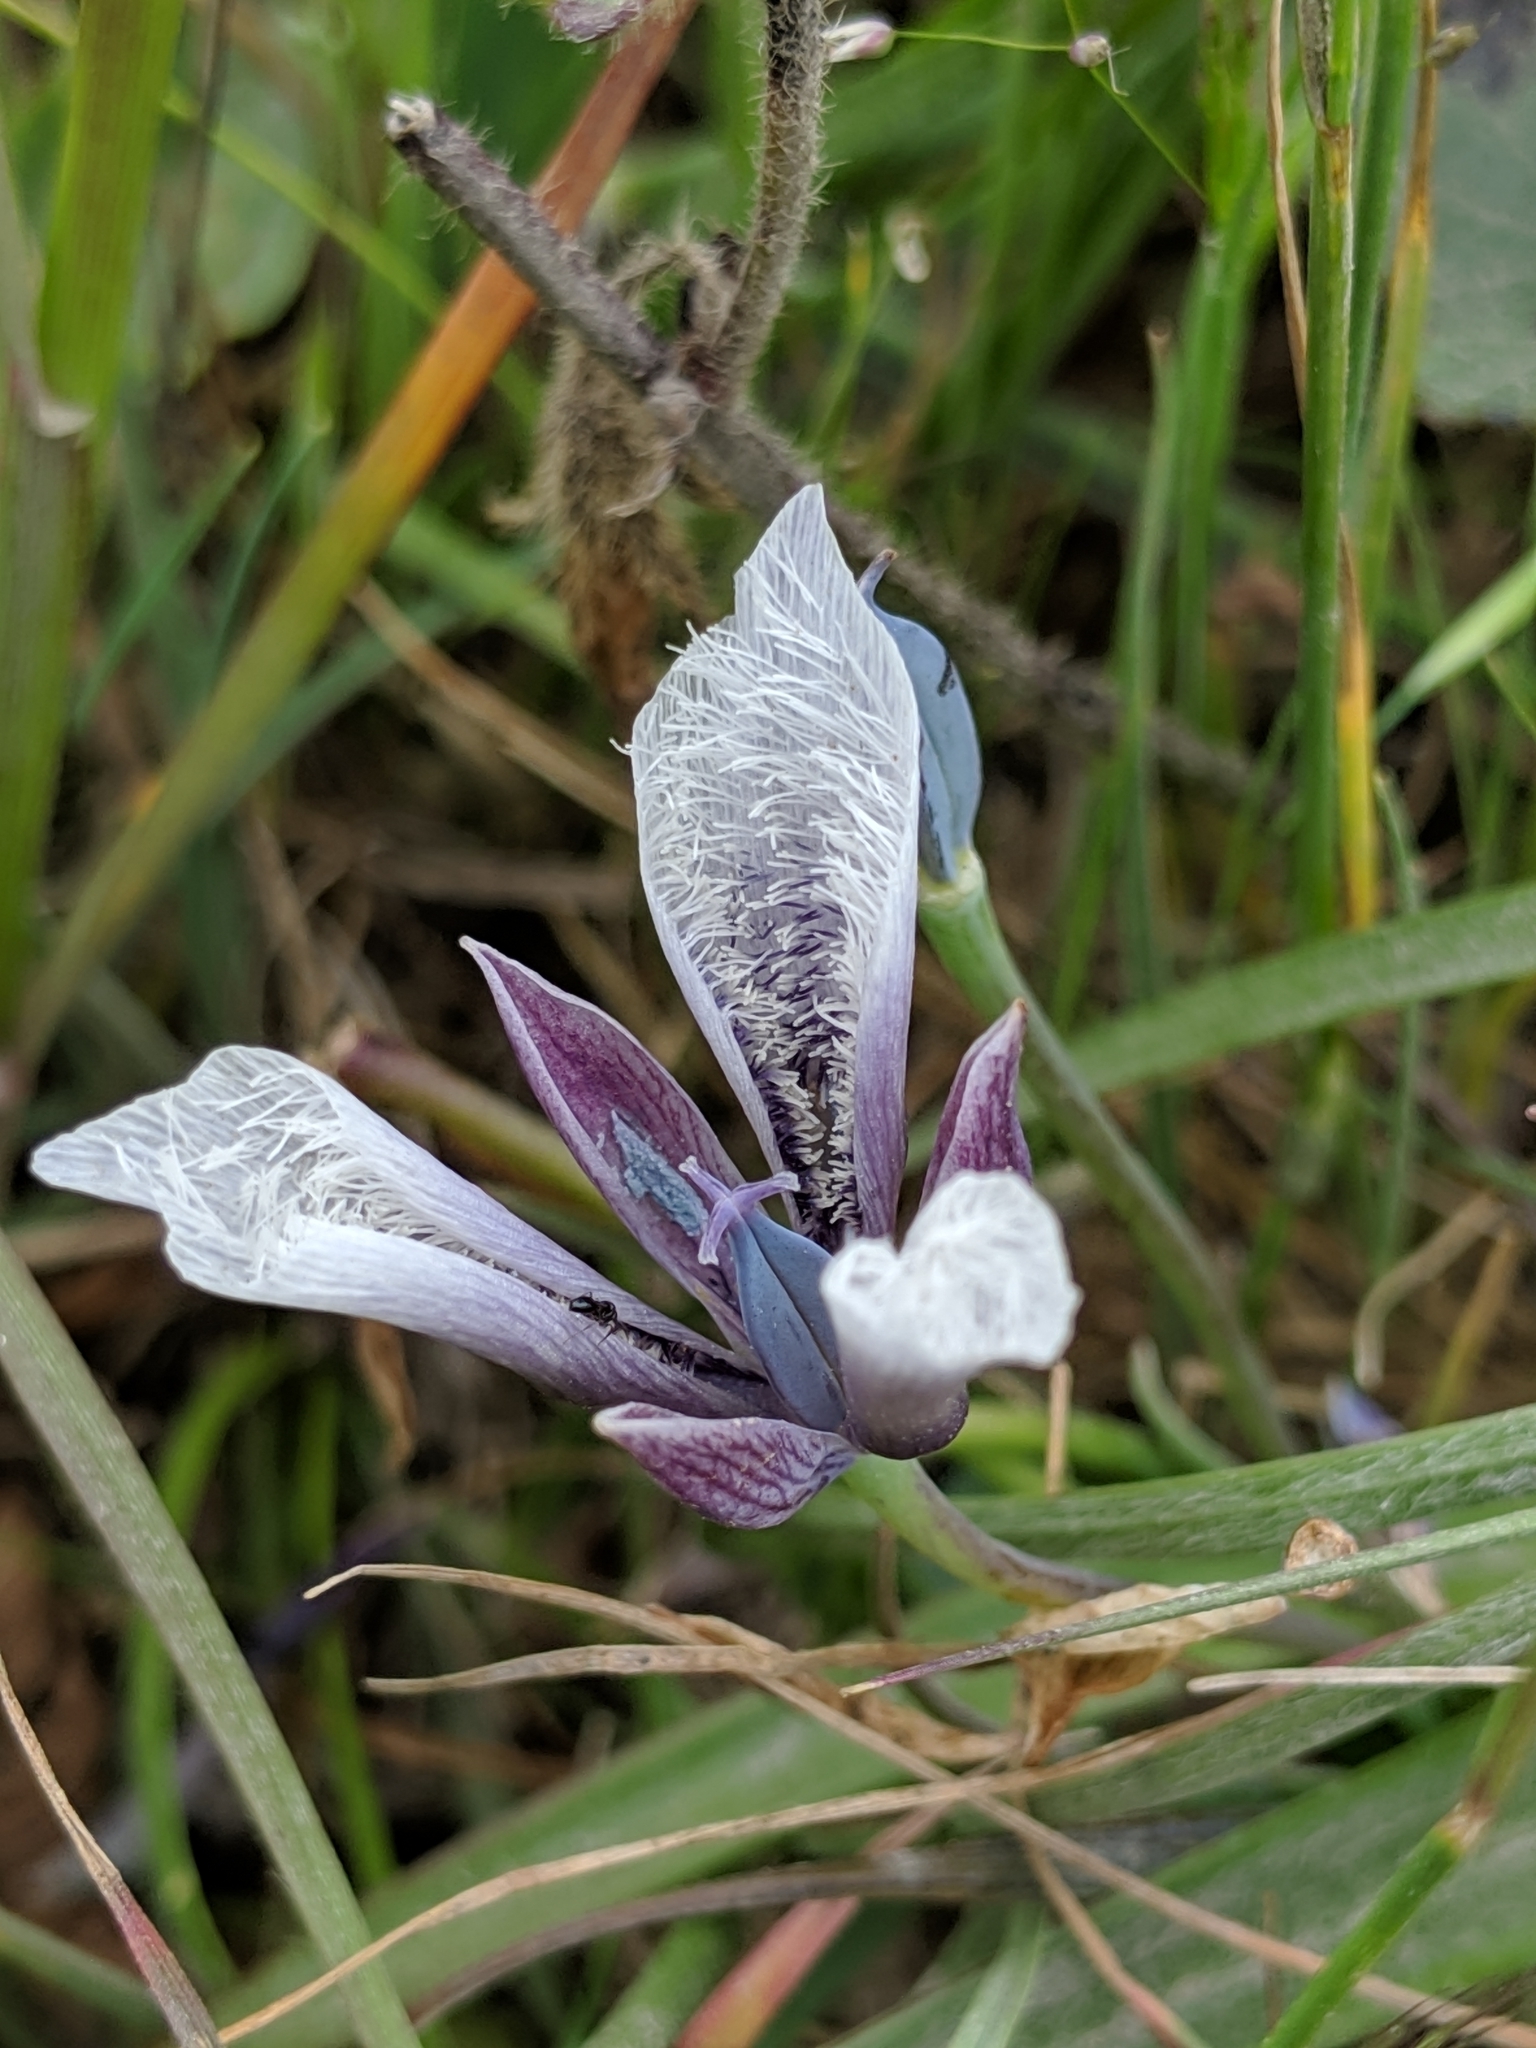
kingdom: Plantae
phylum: Tracheophyta
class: Liliopsida
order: Liliales
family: Liliaceae
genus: Calochortus
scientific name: Calochortus tolmiei
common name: Pussy-ears
